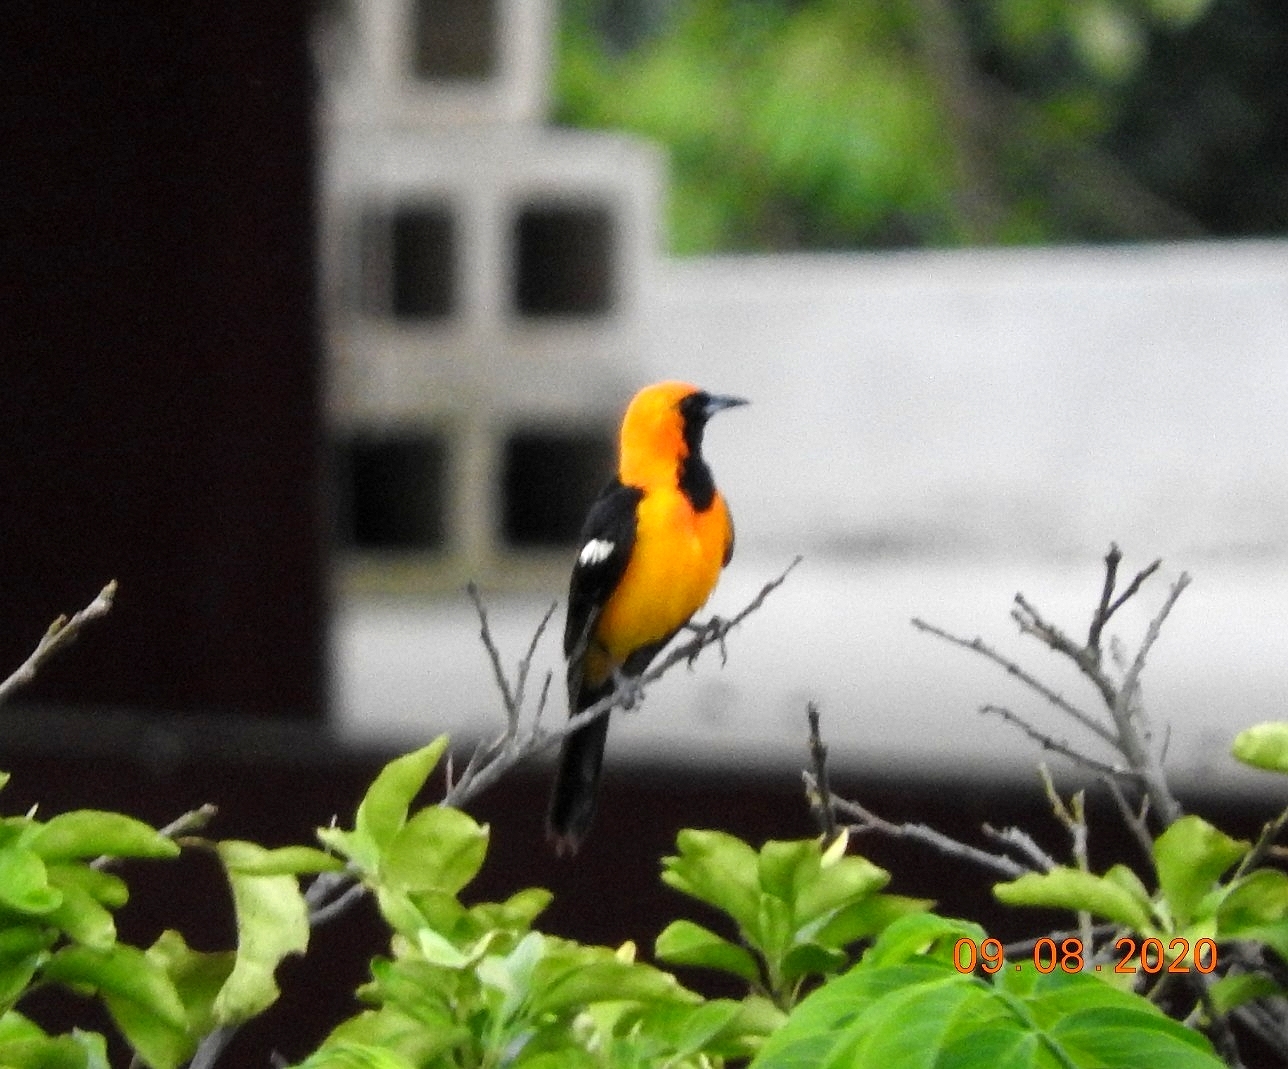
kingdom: Animalia
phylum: Chordata
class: Aves
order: Passeriformes
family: Icteridae
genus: Icterus
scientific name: Icterus cucullatus
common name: Hooded oriole
